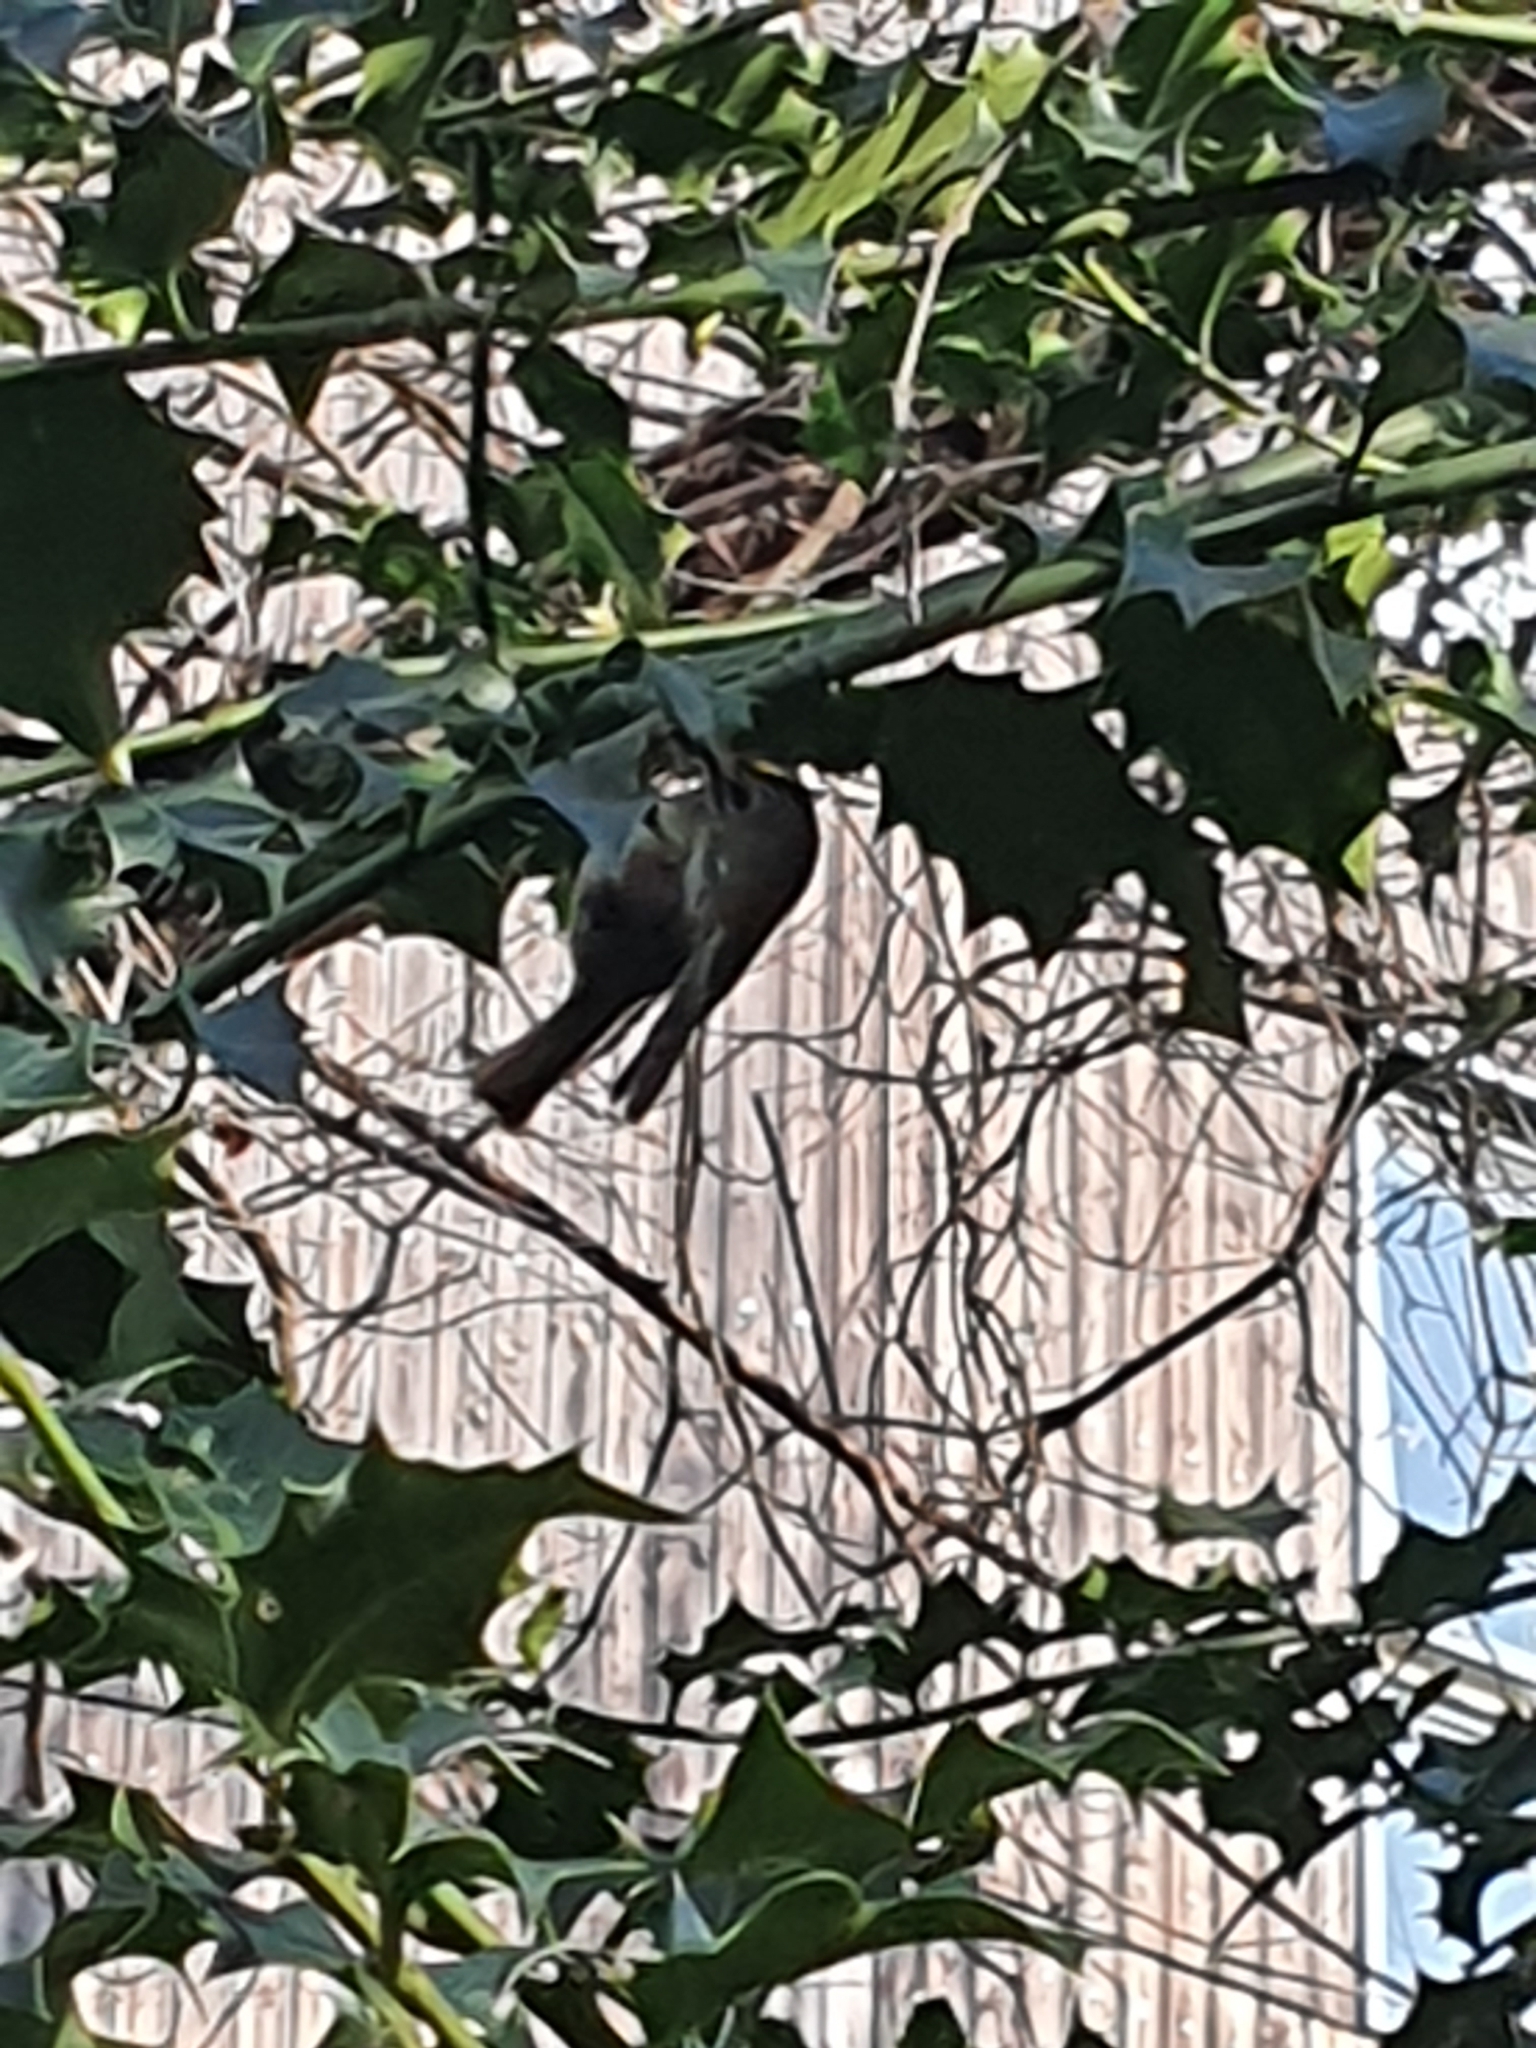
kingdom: Animalia
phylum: Chordata
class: Aves
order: Passeriformes
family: Regulidae
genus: Regulus
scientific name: Regulus regulus
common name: Goldcrest
